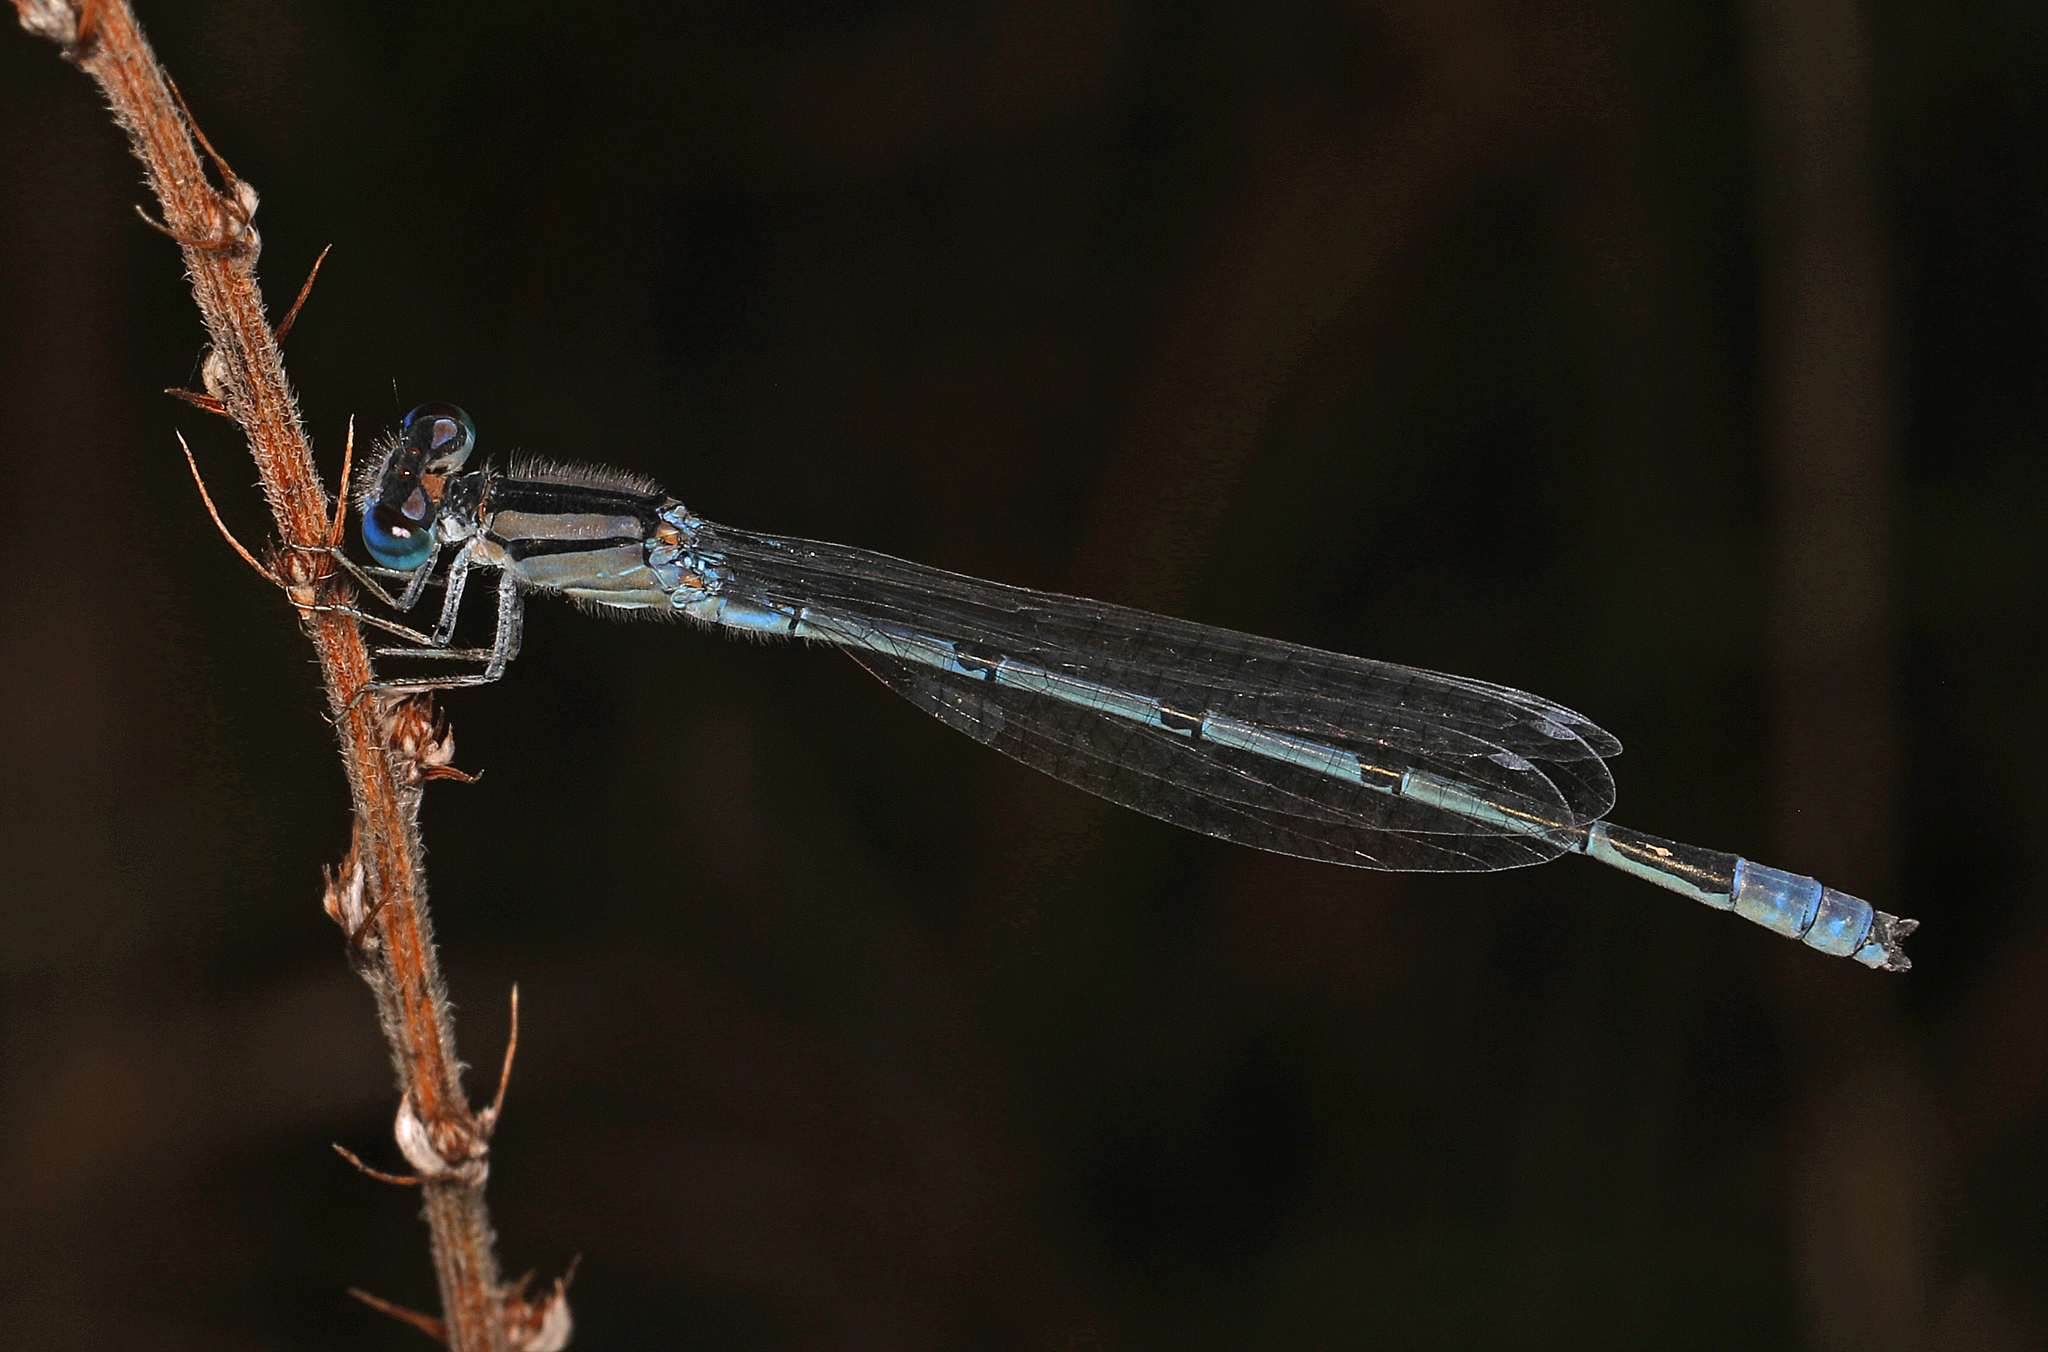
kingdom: Animalia
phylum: Arthropoda
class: Insecta
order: Odonata
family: Coenagrionidae
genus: Enallagma
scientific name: Enallagma civile
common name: Damselfly
